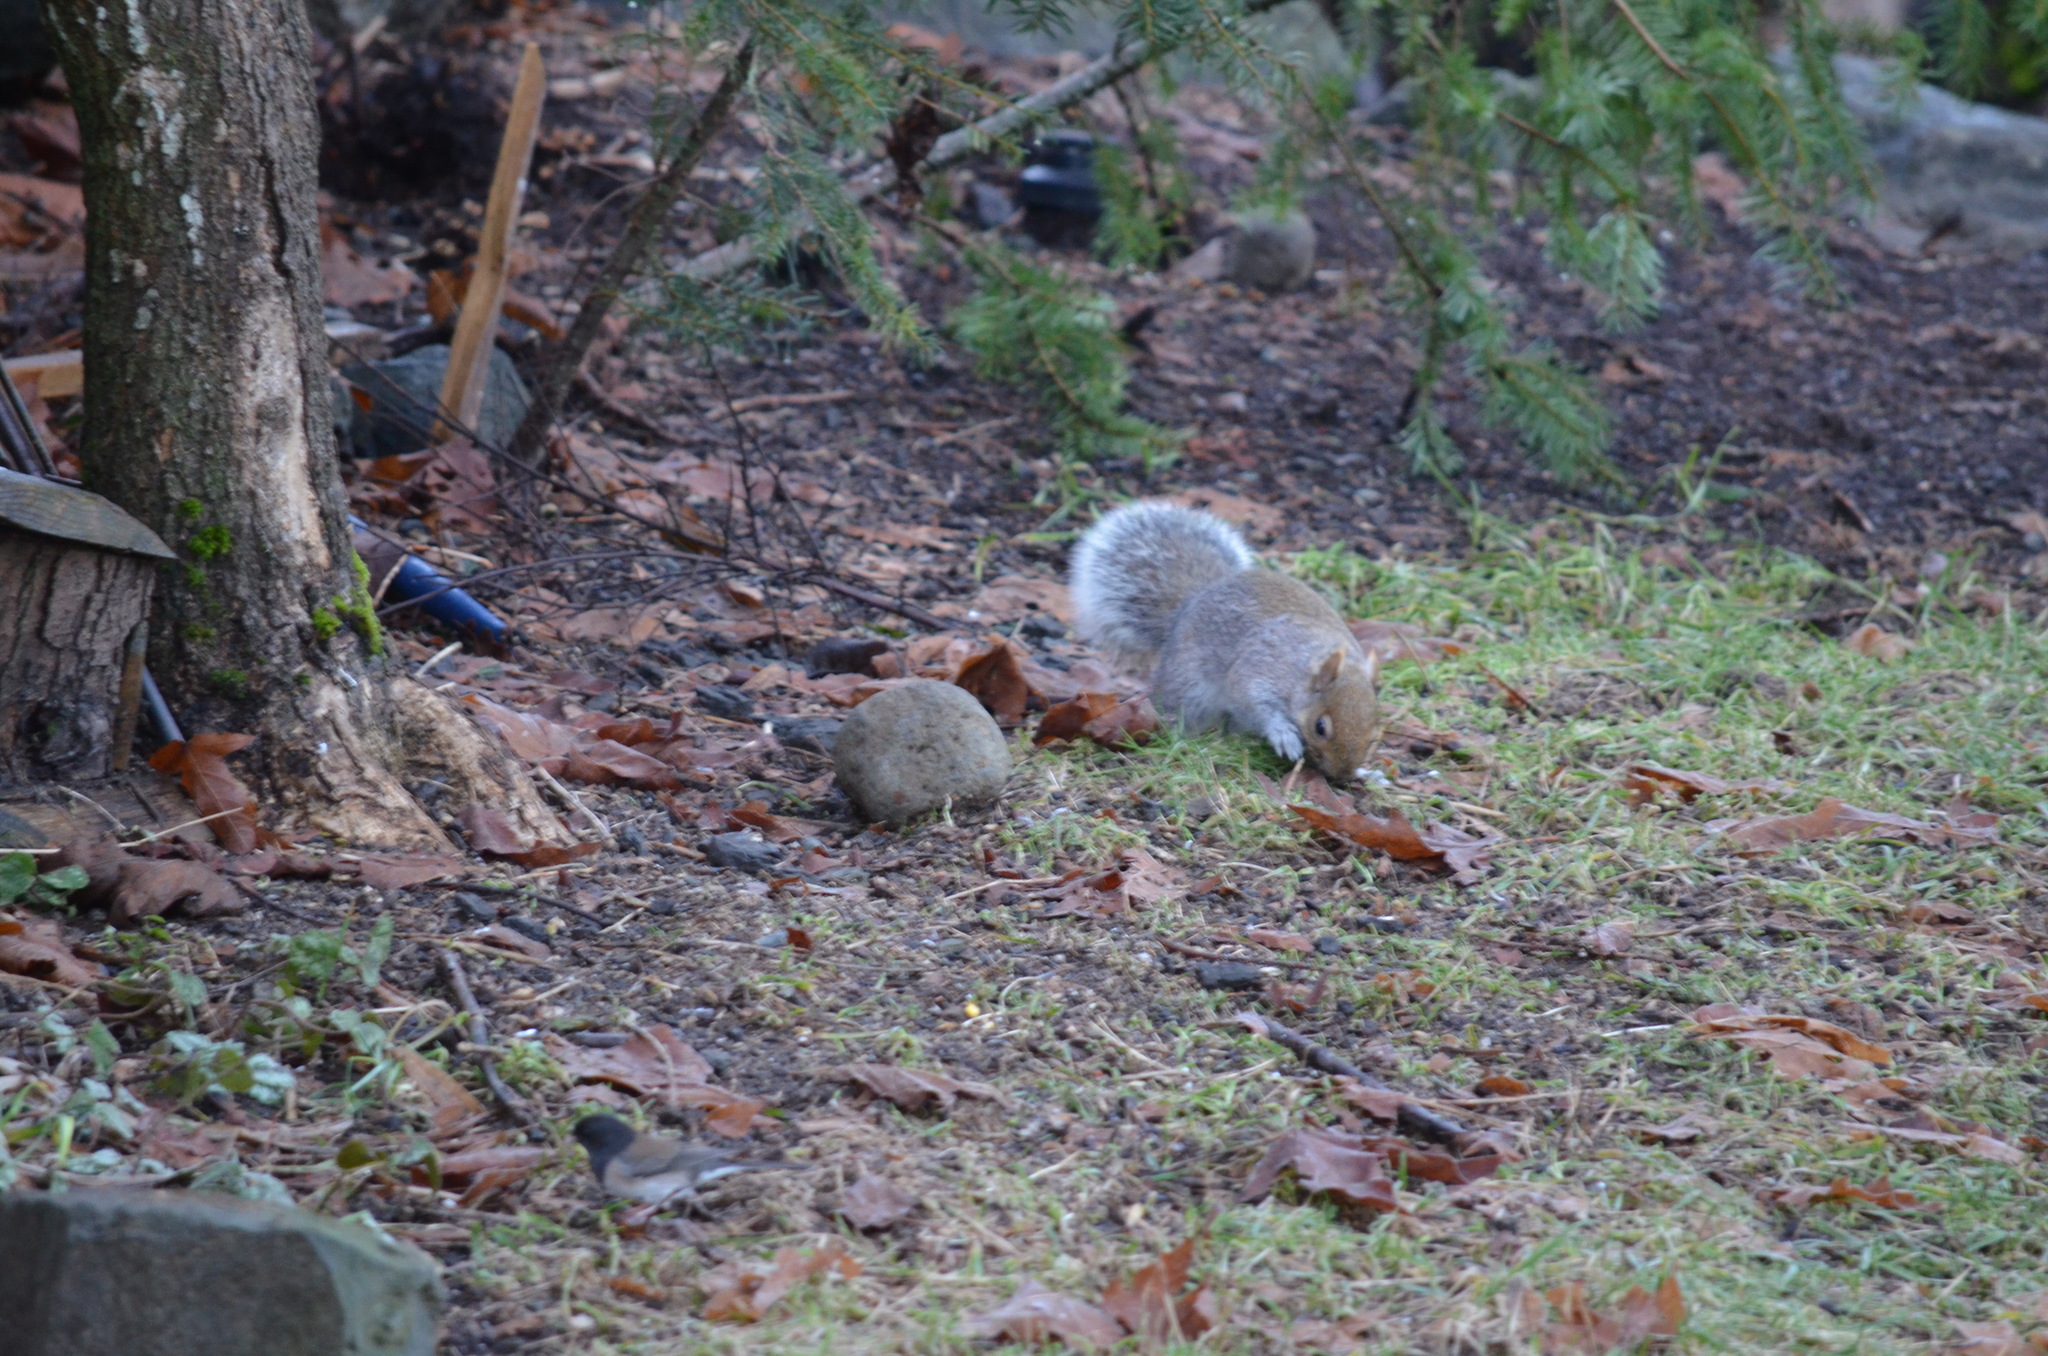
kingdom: Animalia
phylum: Chordata
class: Mammalia
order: Rodentia
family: Sciuridae
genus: Sciurus
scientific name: Sciurus carolinensis
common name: Eastern gray squirrel
